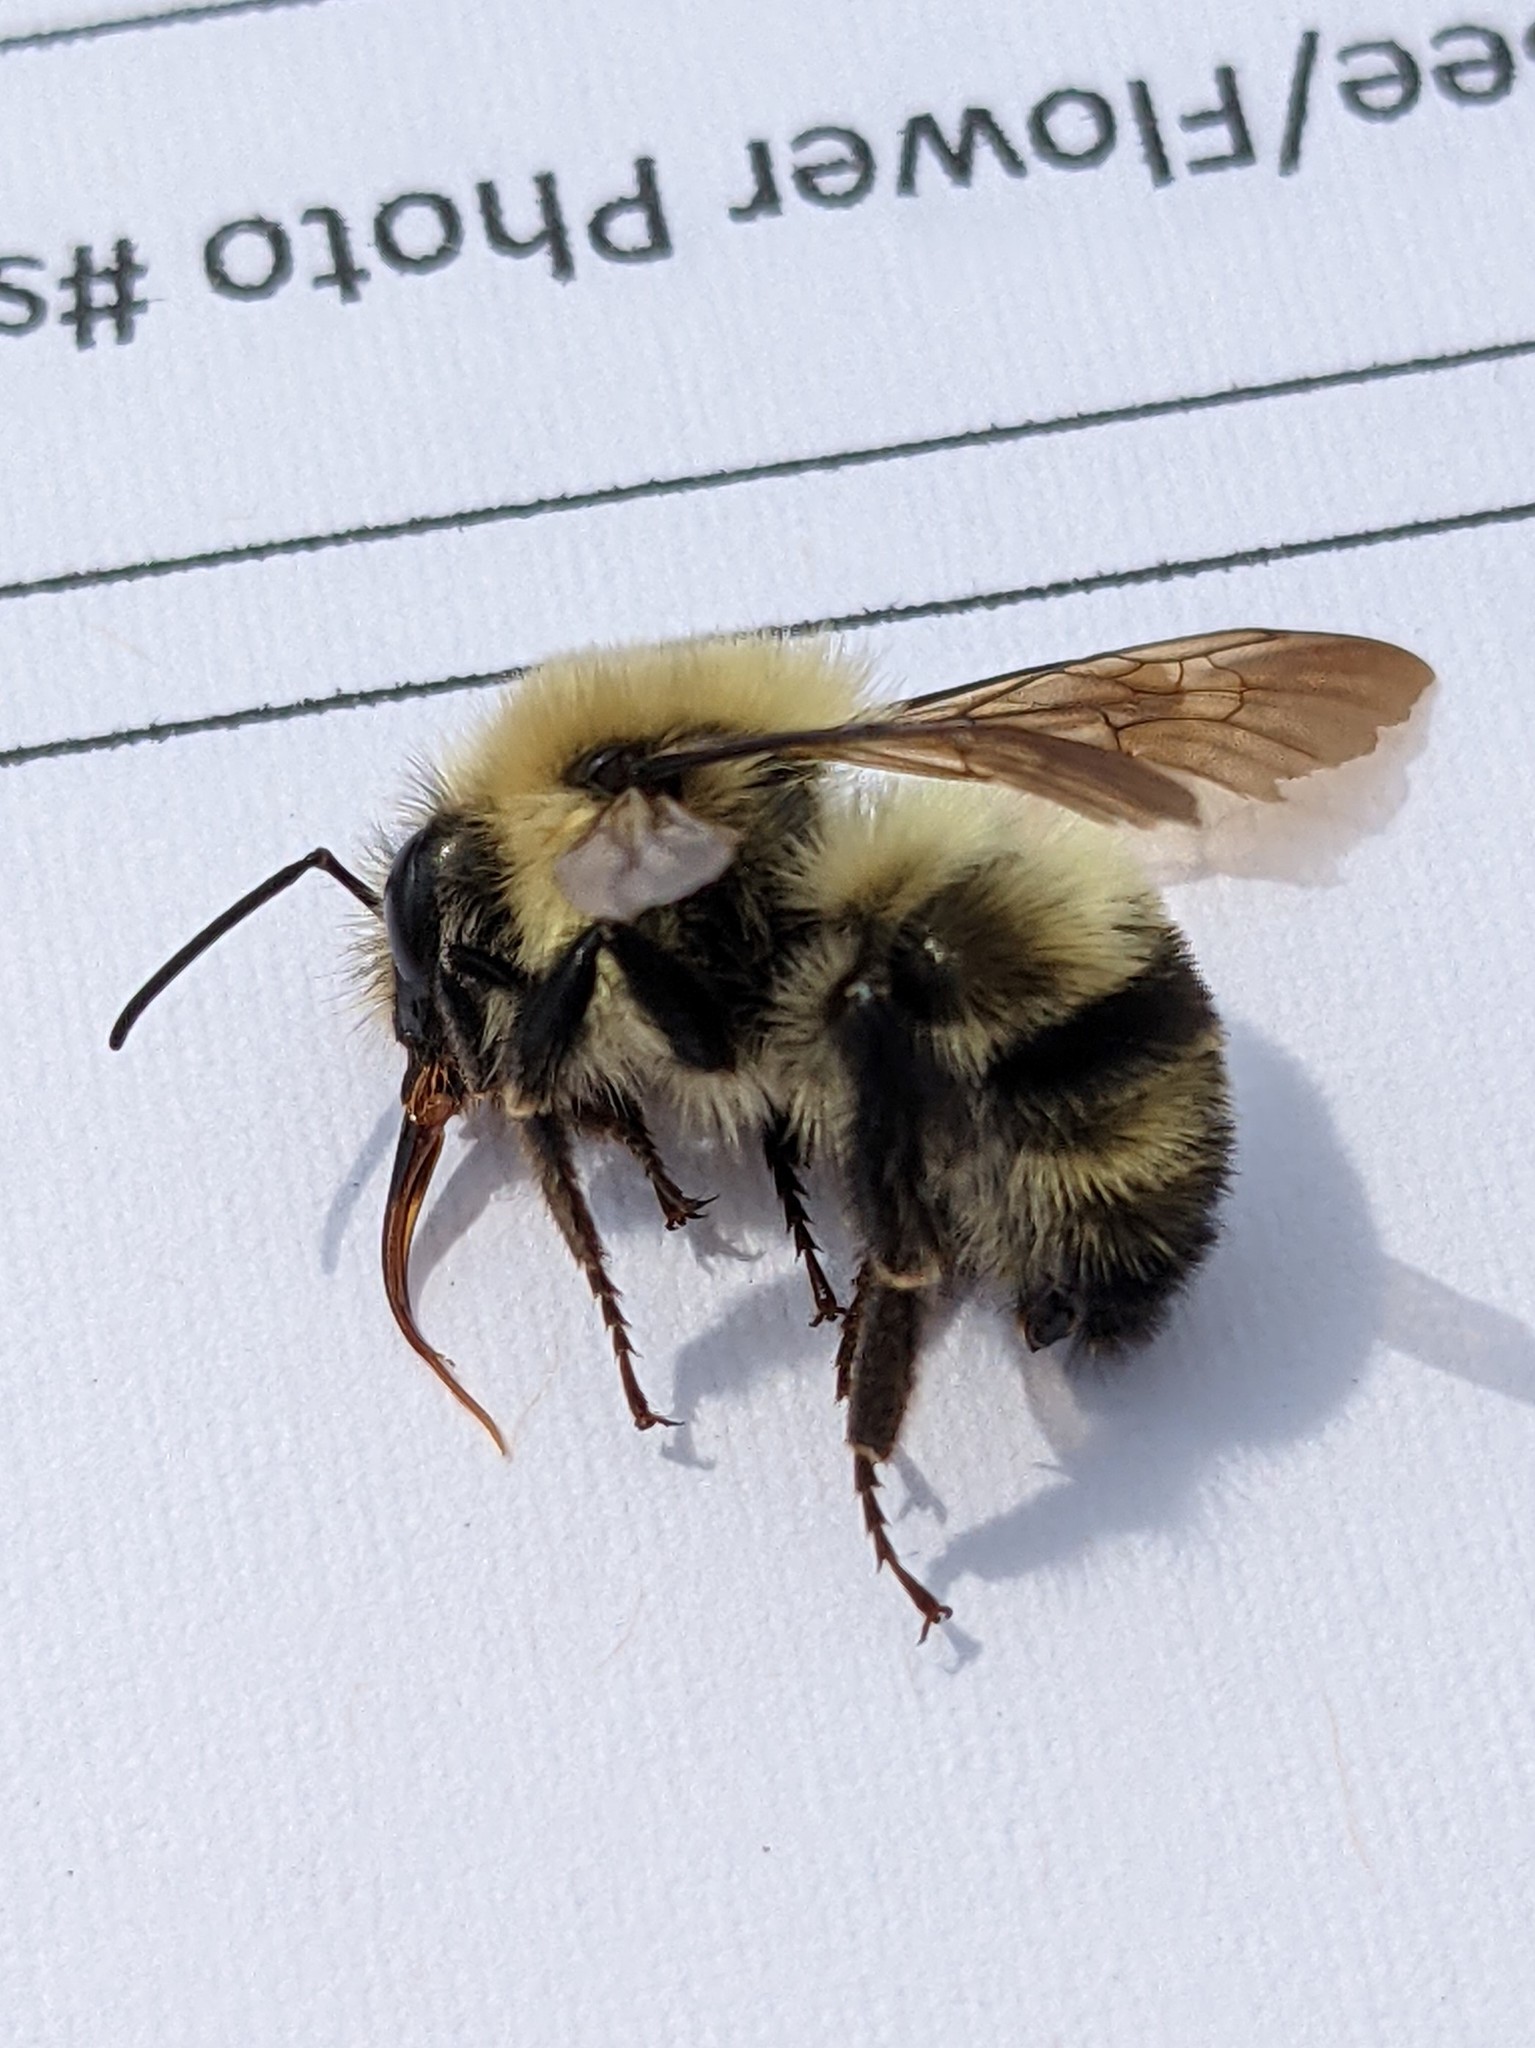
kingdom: Animalia
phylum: Arthropoda
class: Insecta
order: Hymenoptera
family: Apidae
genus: Bombus
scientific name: Bombus bimaculatus
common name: Two-spotted bumble bee
